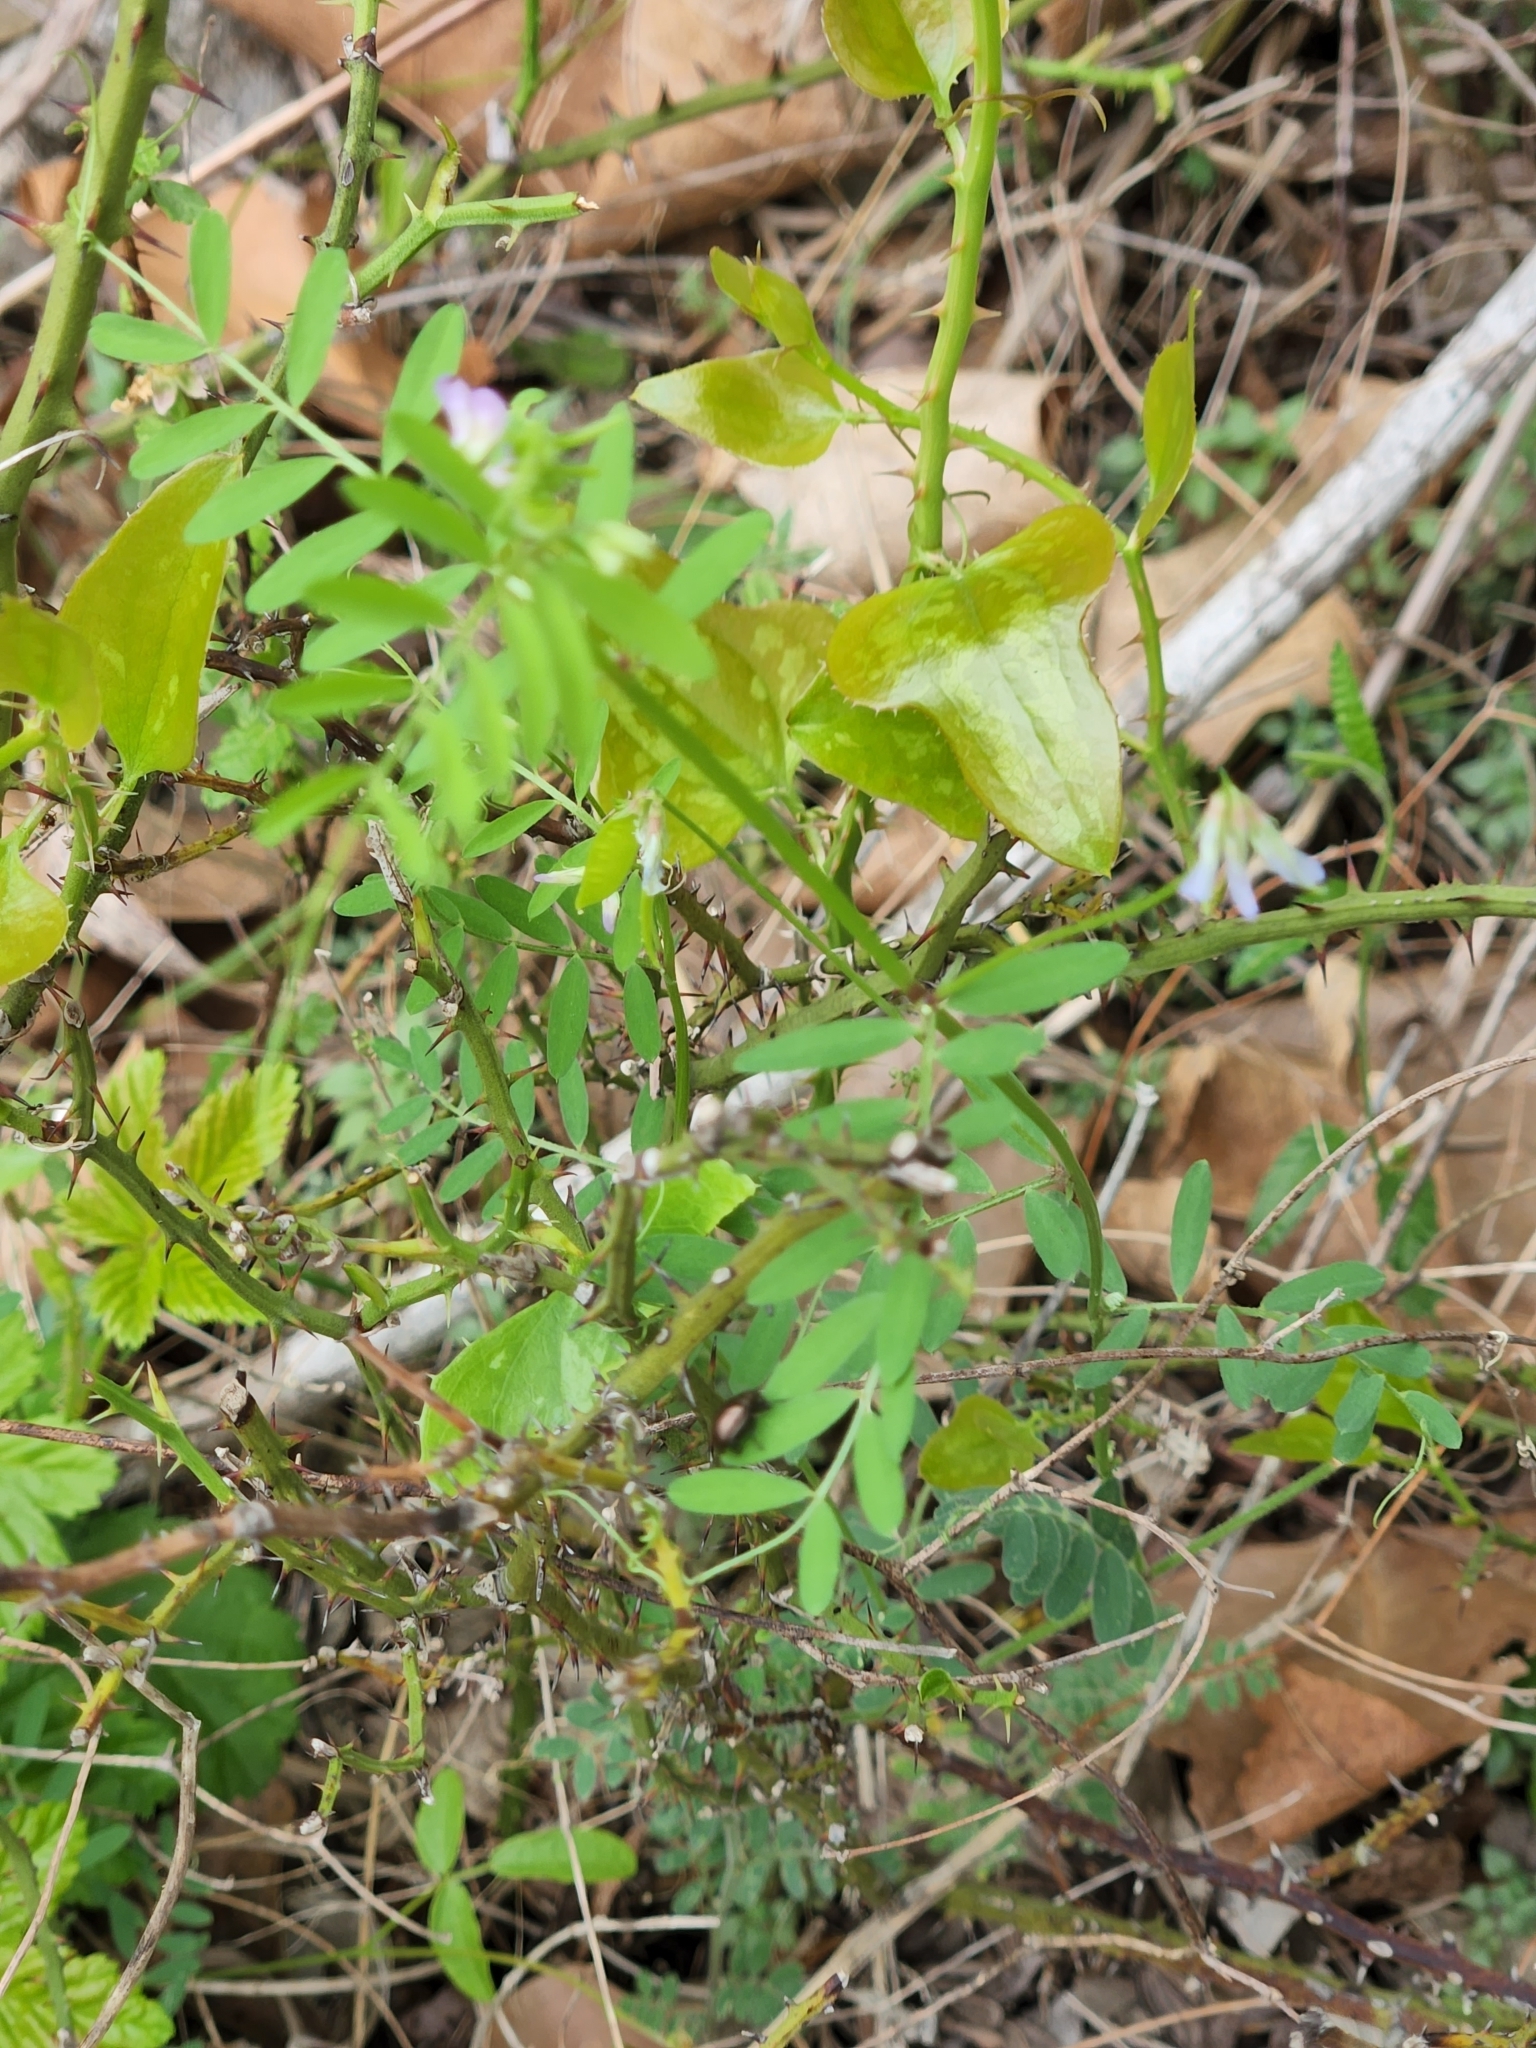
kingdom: Plantae
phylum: Tracheophyta
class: Magnoliopsida
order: Fabales
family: Fabaceae
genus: Vicia
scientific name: Vicia ludoviciana
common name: Louisiana vetch
